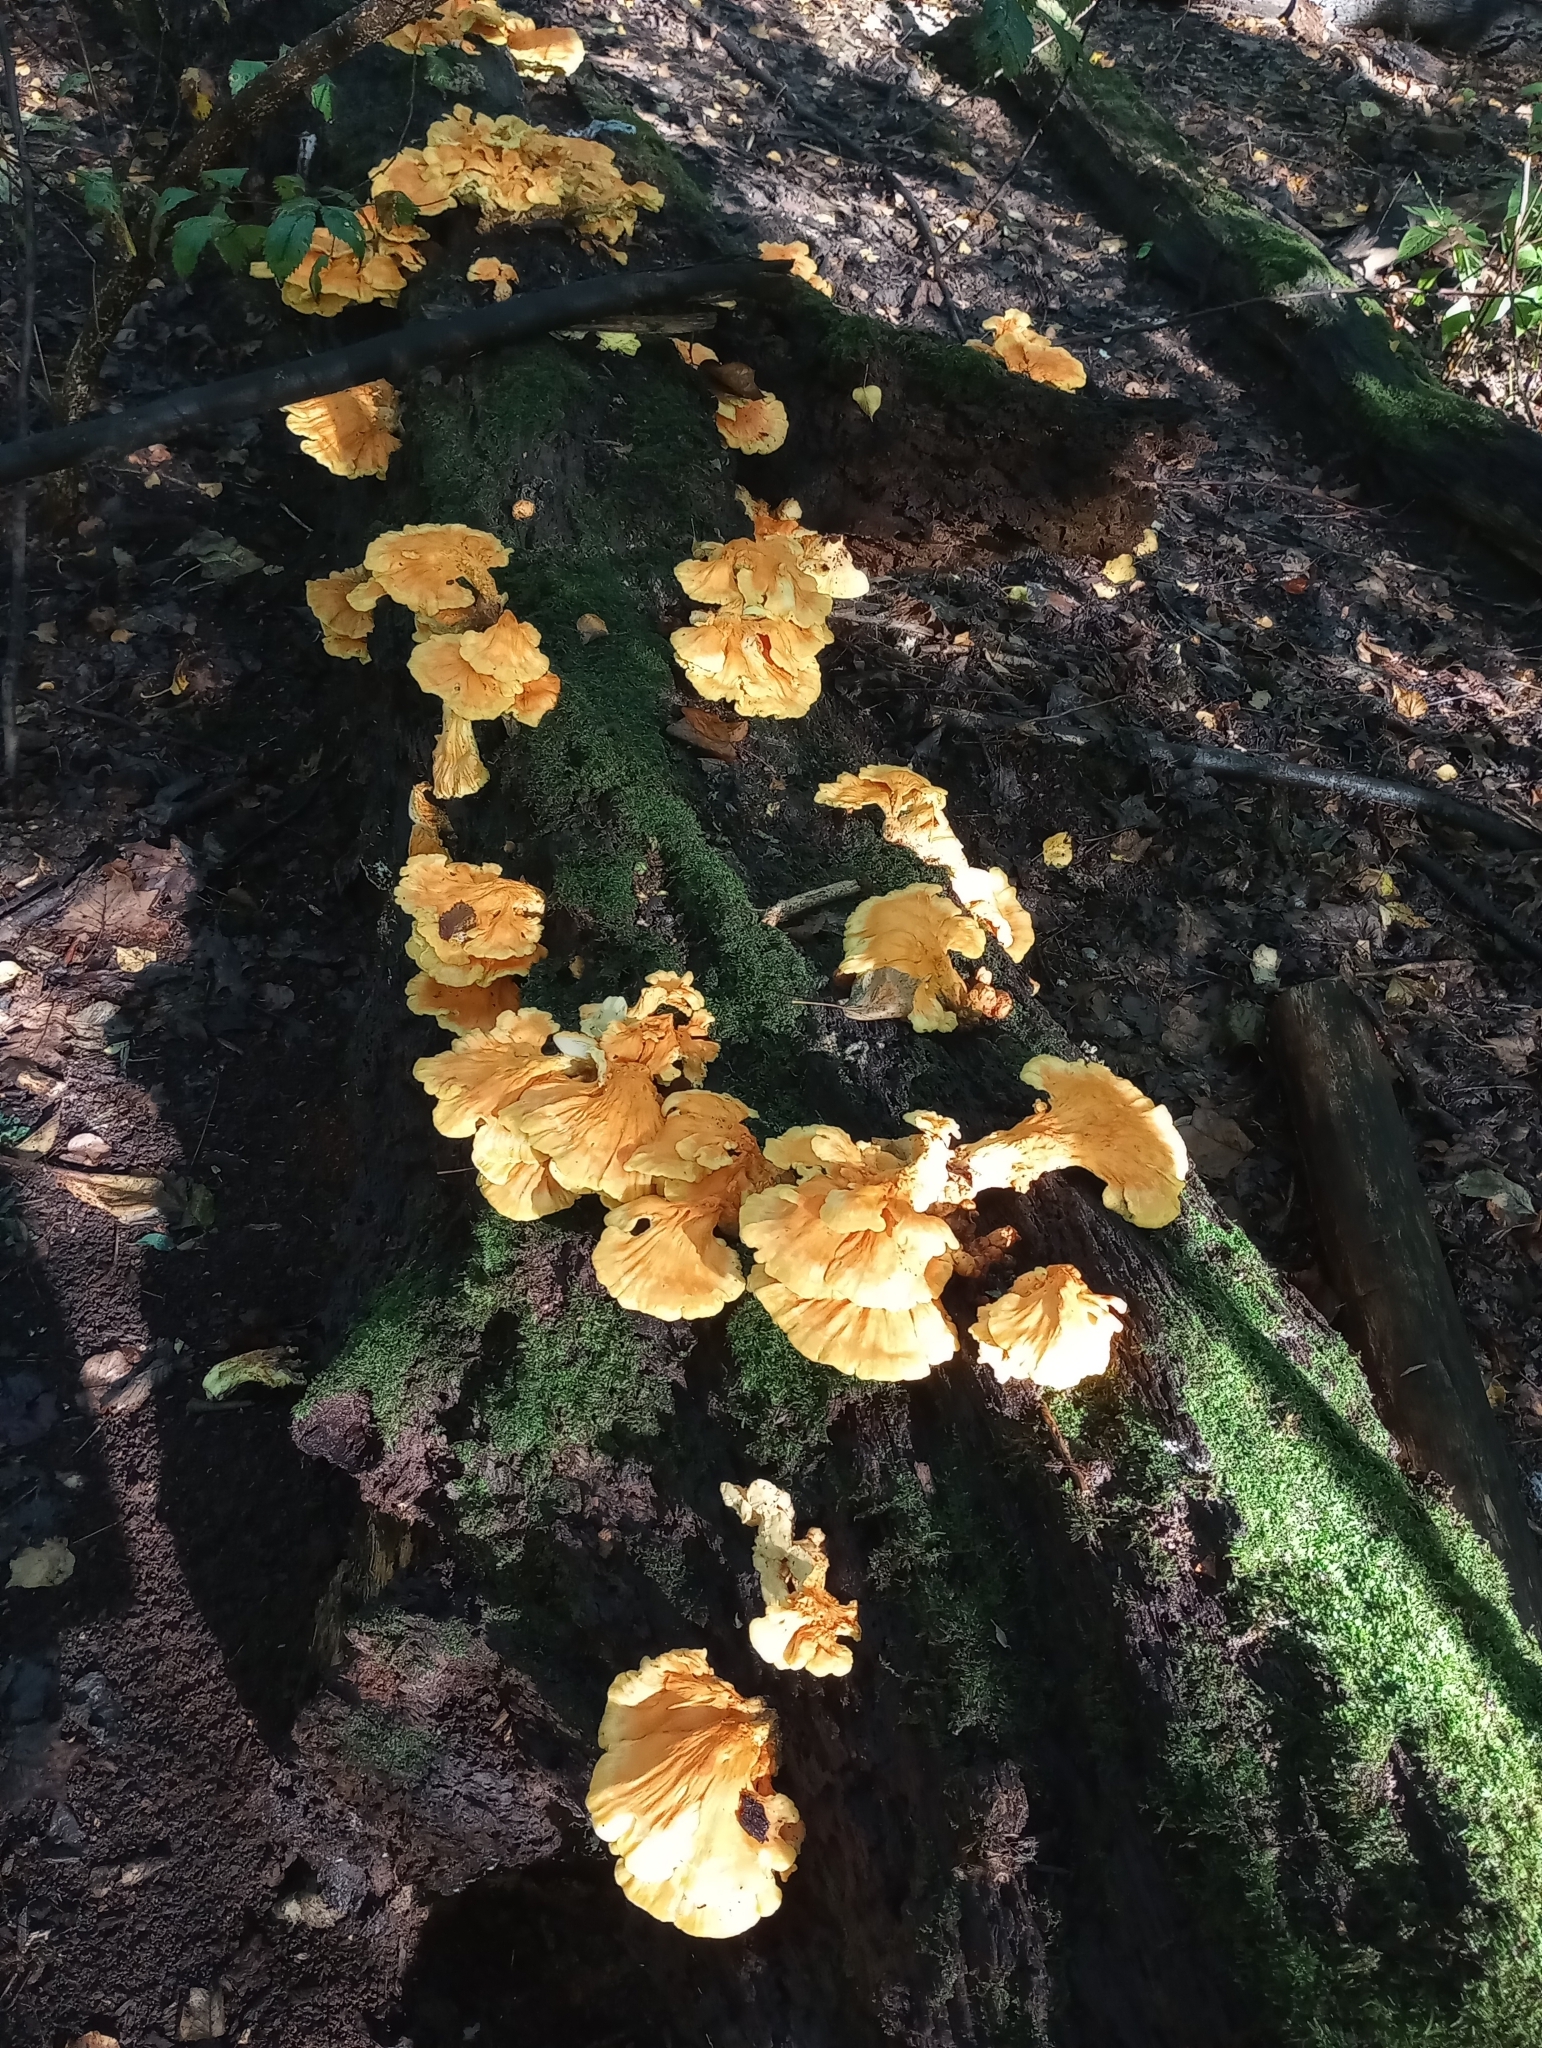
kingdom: Fungi
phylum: Basidiomycota
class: Agaricomycetes
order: Polyporales
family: Laetiporaceae
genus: Laetiporus
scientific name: Laetiporus sulphureus
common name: Chicken of the woods
